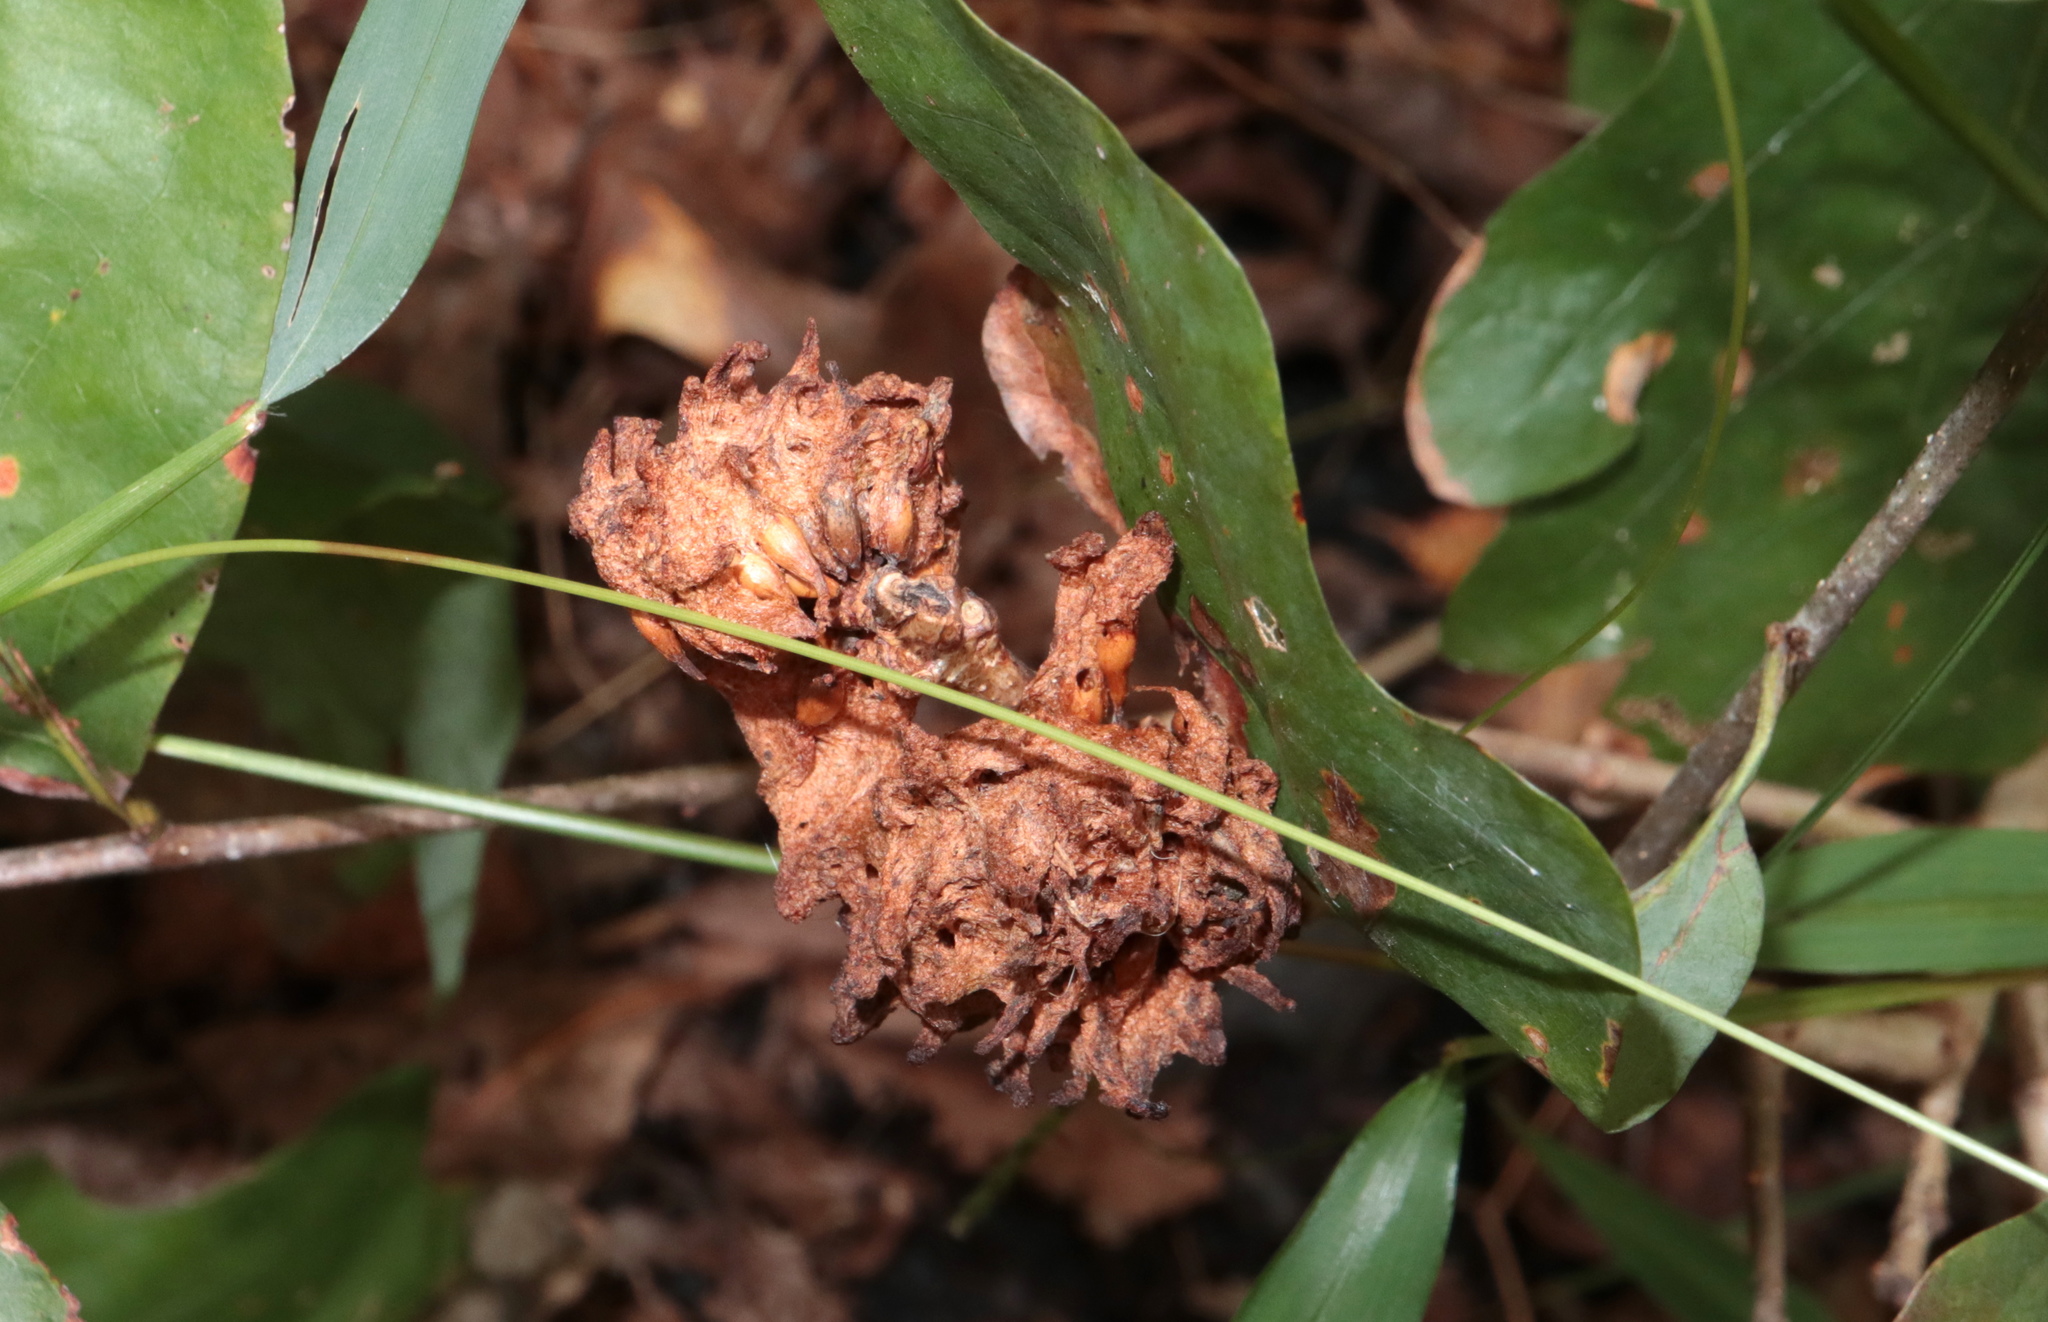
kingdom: Animalia
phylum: Arthropoda
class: Insecta
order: Hymenoptera
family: Cynipidae
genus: Callirhytis
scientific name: Callirhytis
